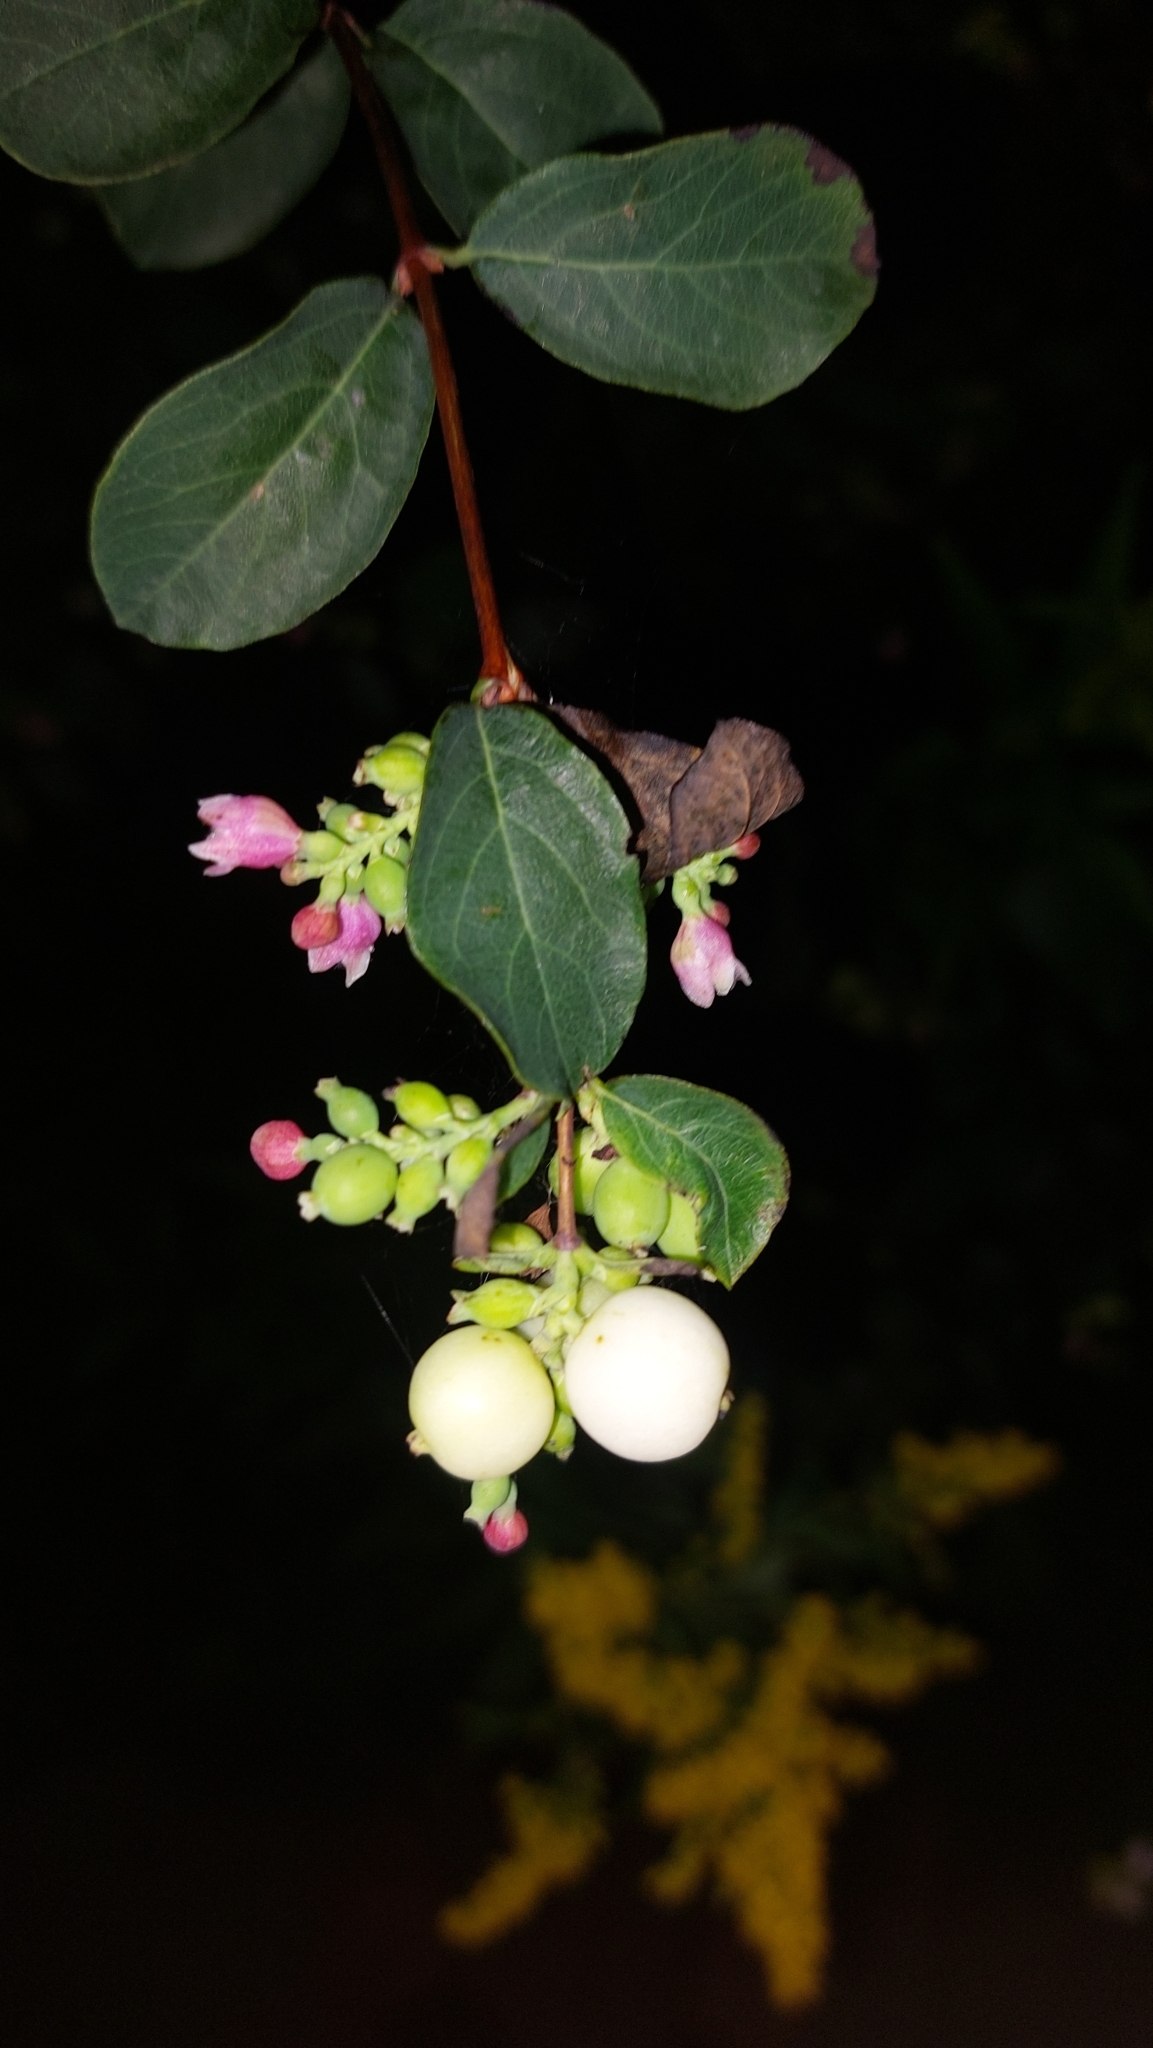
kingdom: Plantae
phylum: Tracheophyta
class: Magnoliopsida
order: Dipsacales
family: Caprifoliaceae
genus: Symphoricarpos
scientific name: Symphoricarpos albus
